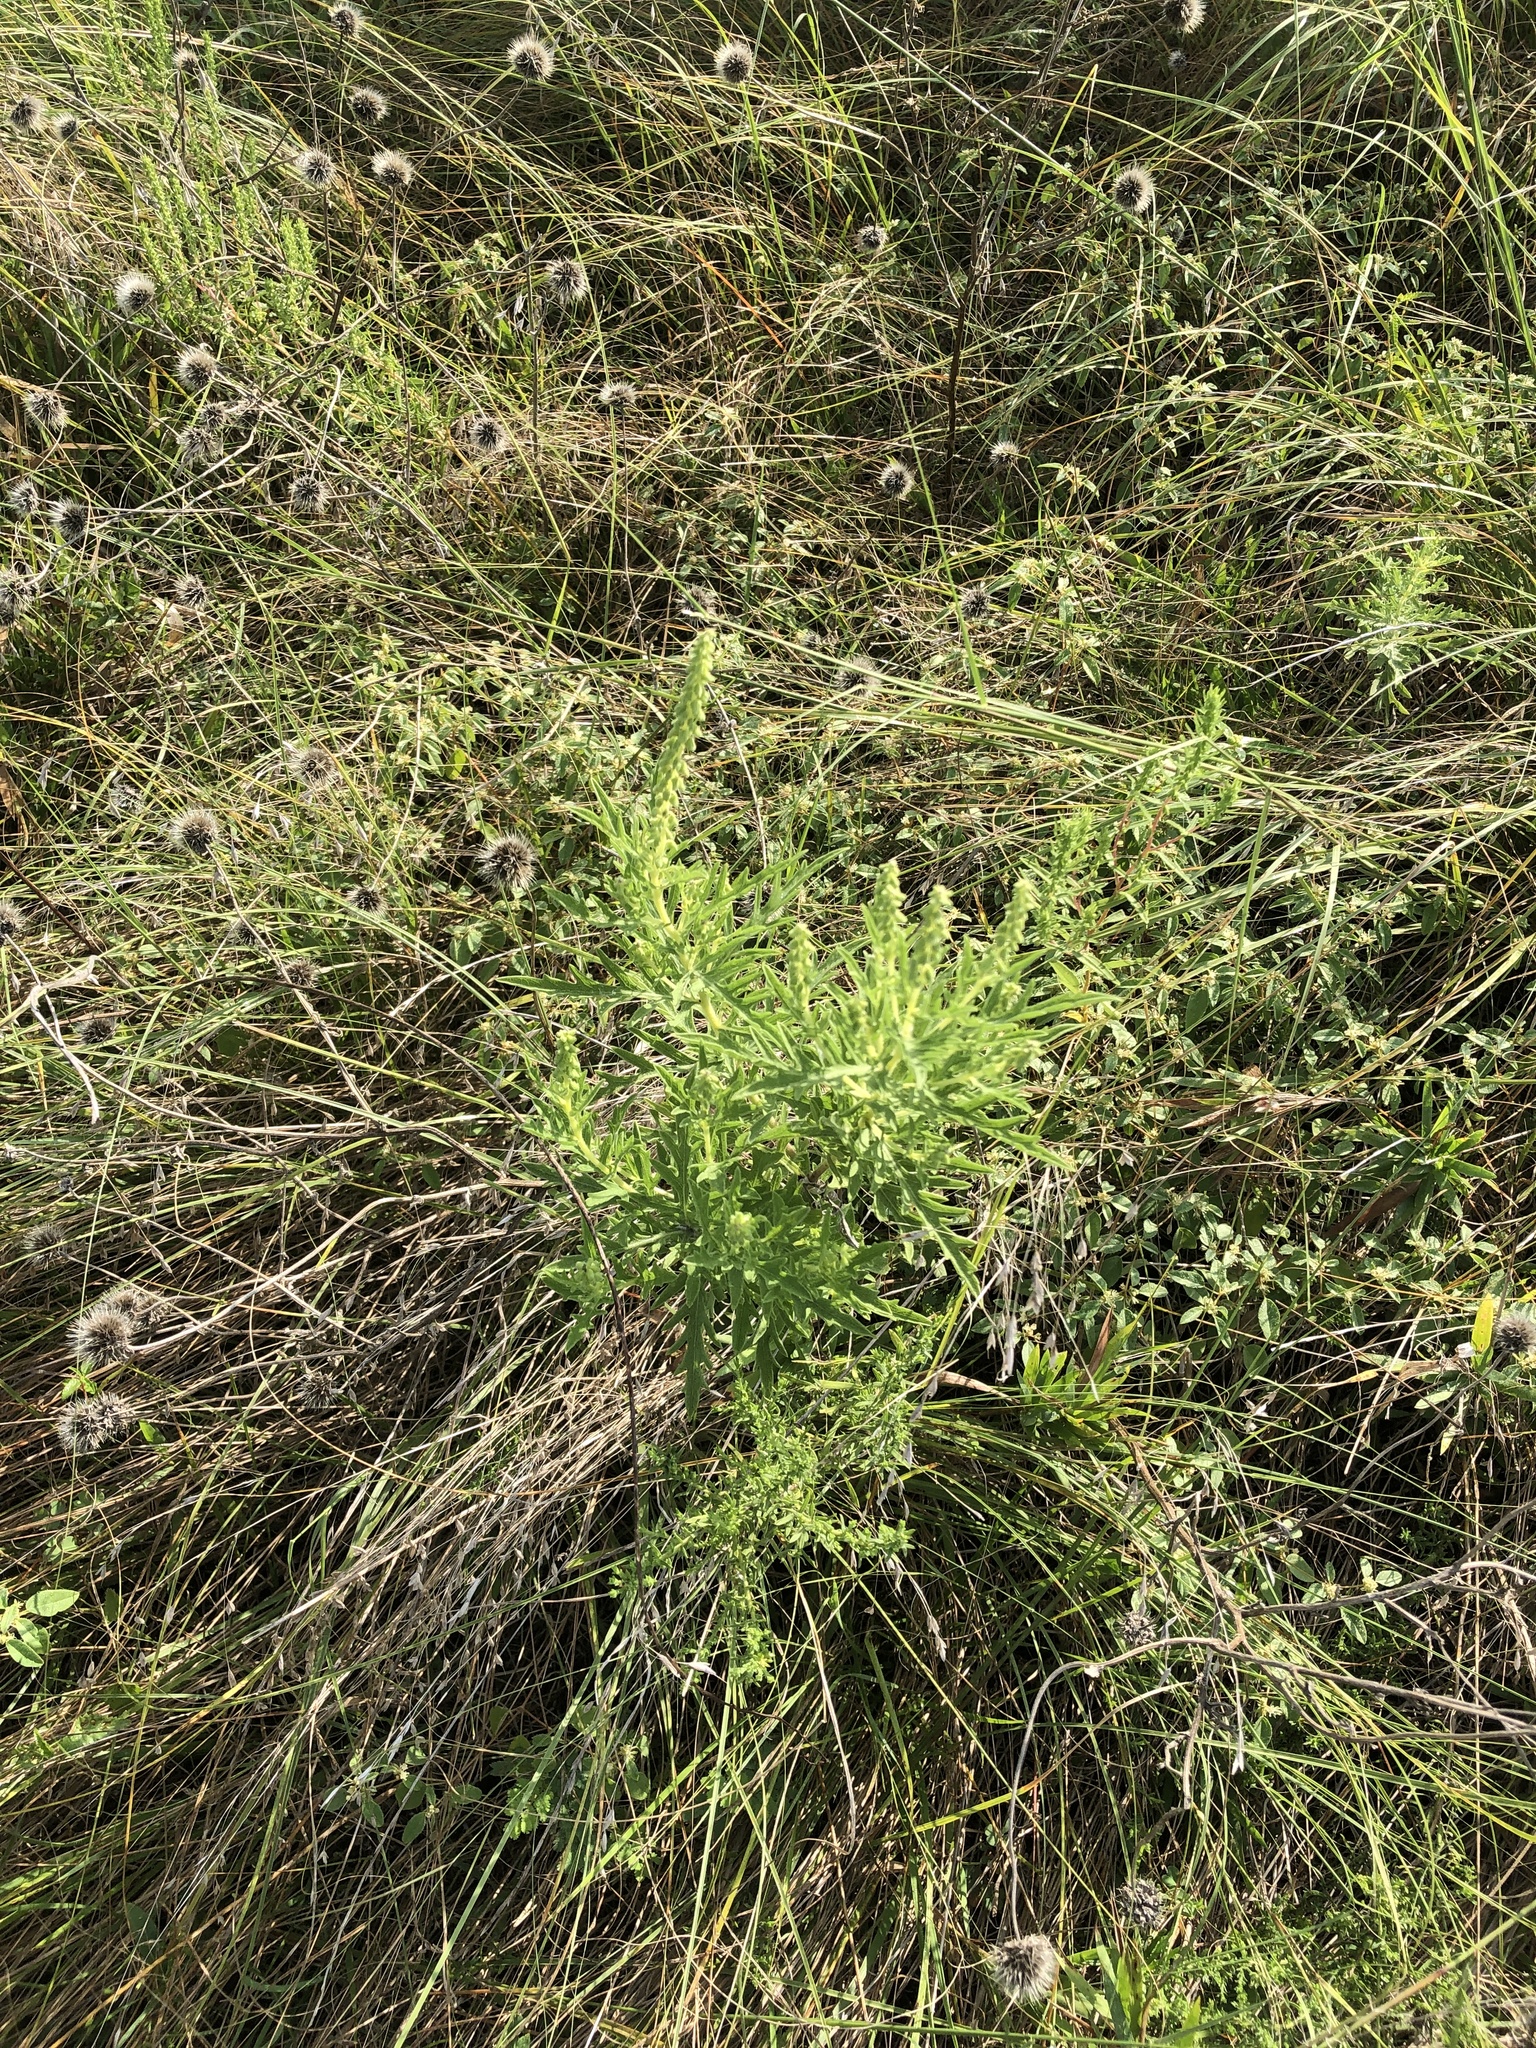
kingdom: Plantae
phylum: Tracheophyta
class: Magnoliopsida
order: Asterales
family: Asteraceae
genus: Ambrosia
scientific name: Ambrosia psilostachya
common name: Perennial ragweed
